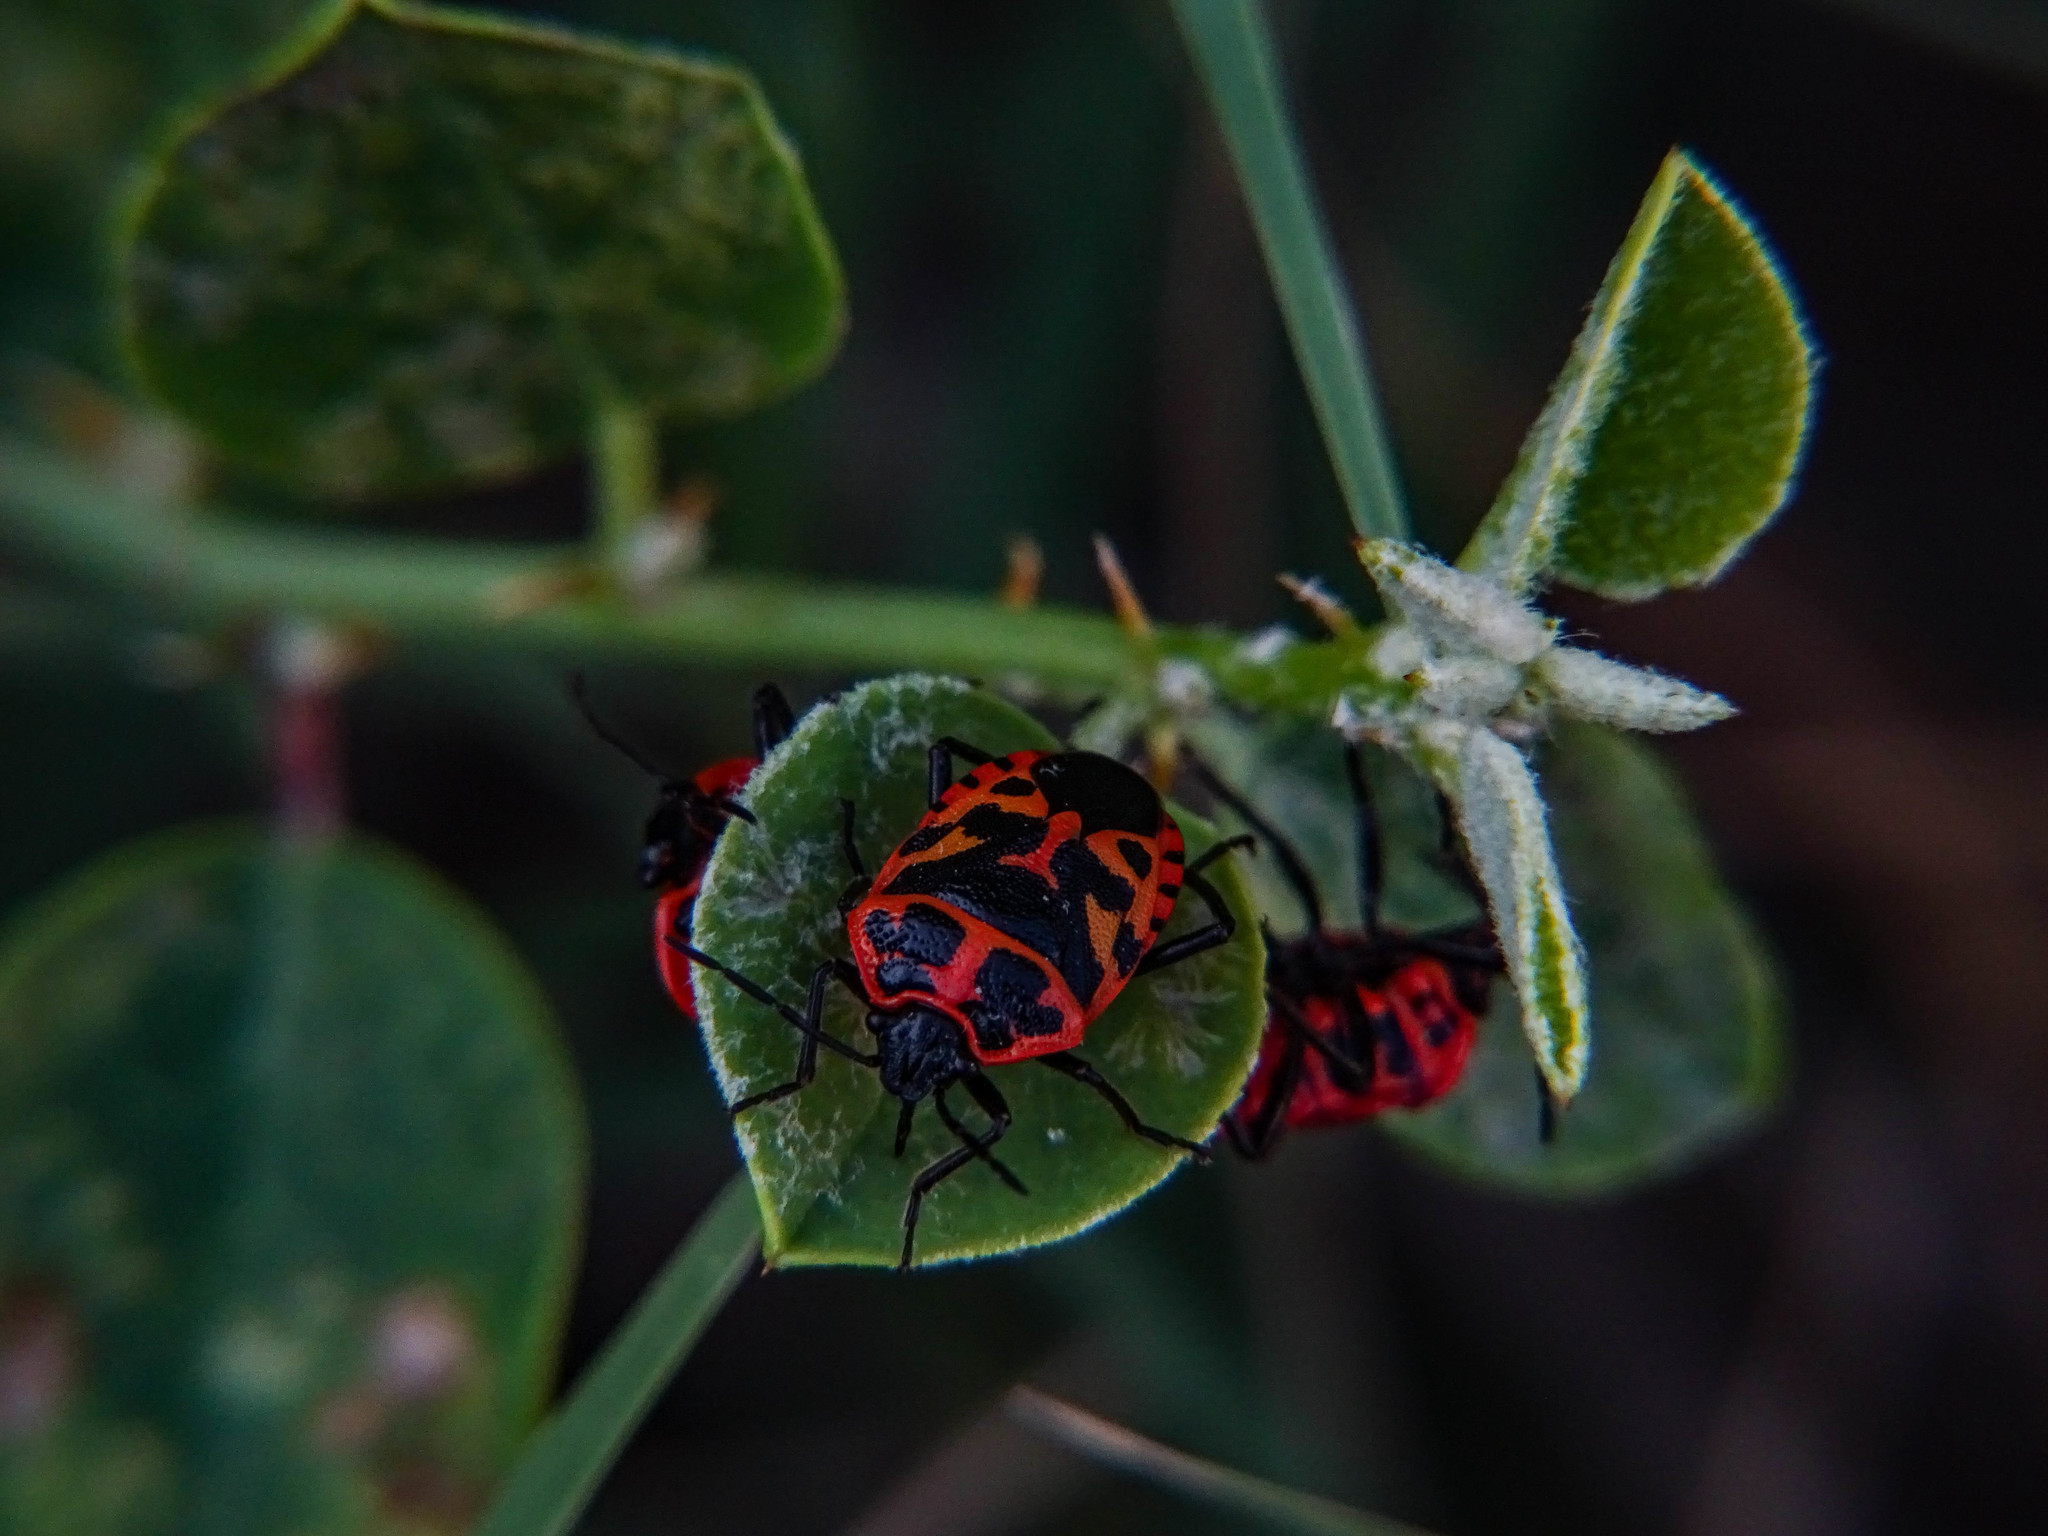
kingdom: Animalia
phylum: Arthropoda
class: Insecta
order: Hemiptera
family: Pentatomidae
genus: Eurydema
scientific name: Eurydema eckerleini
